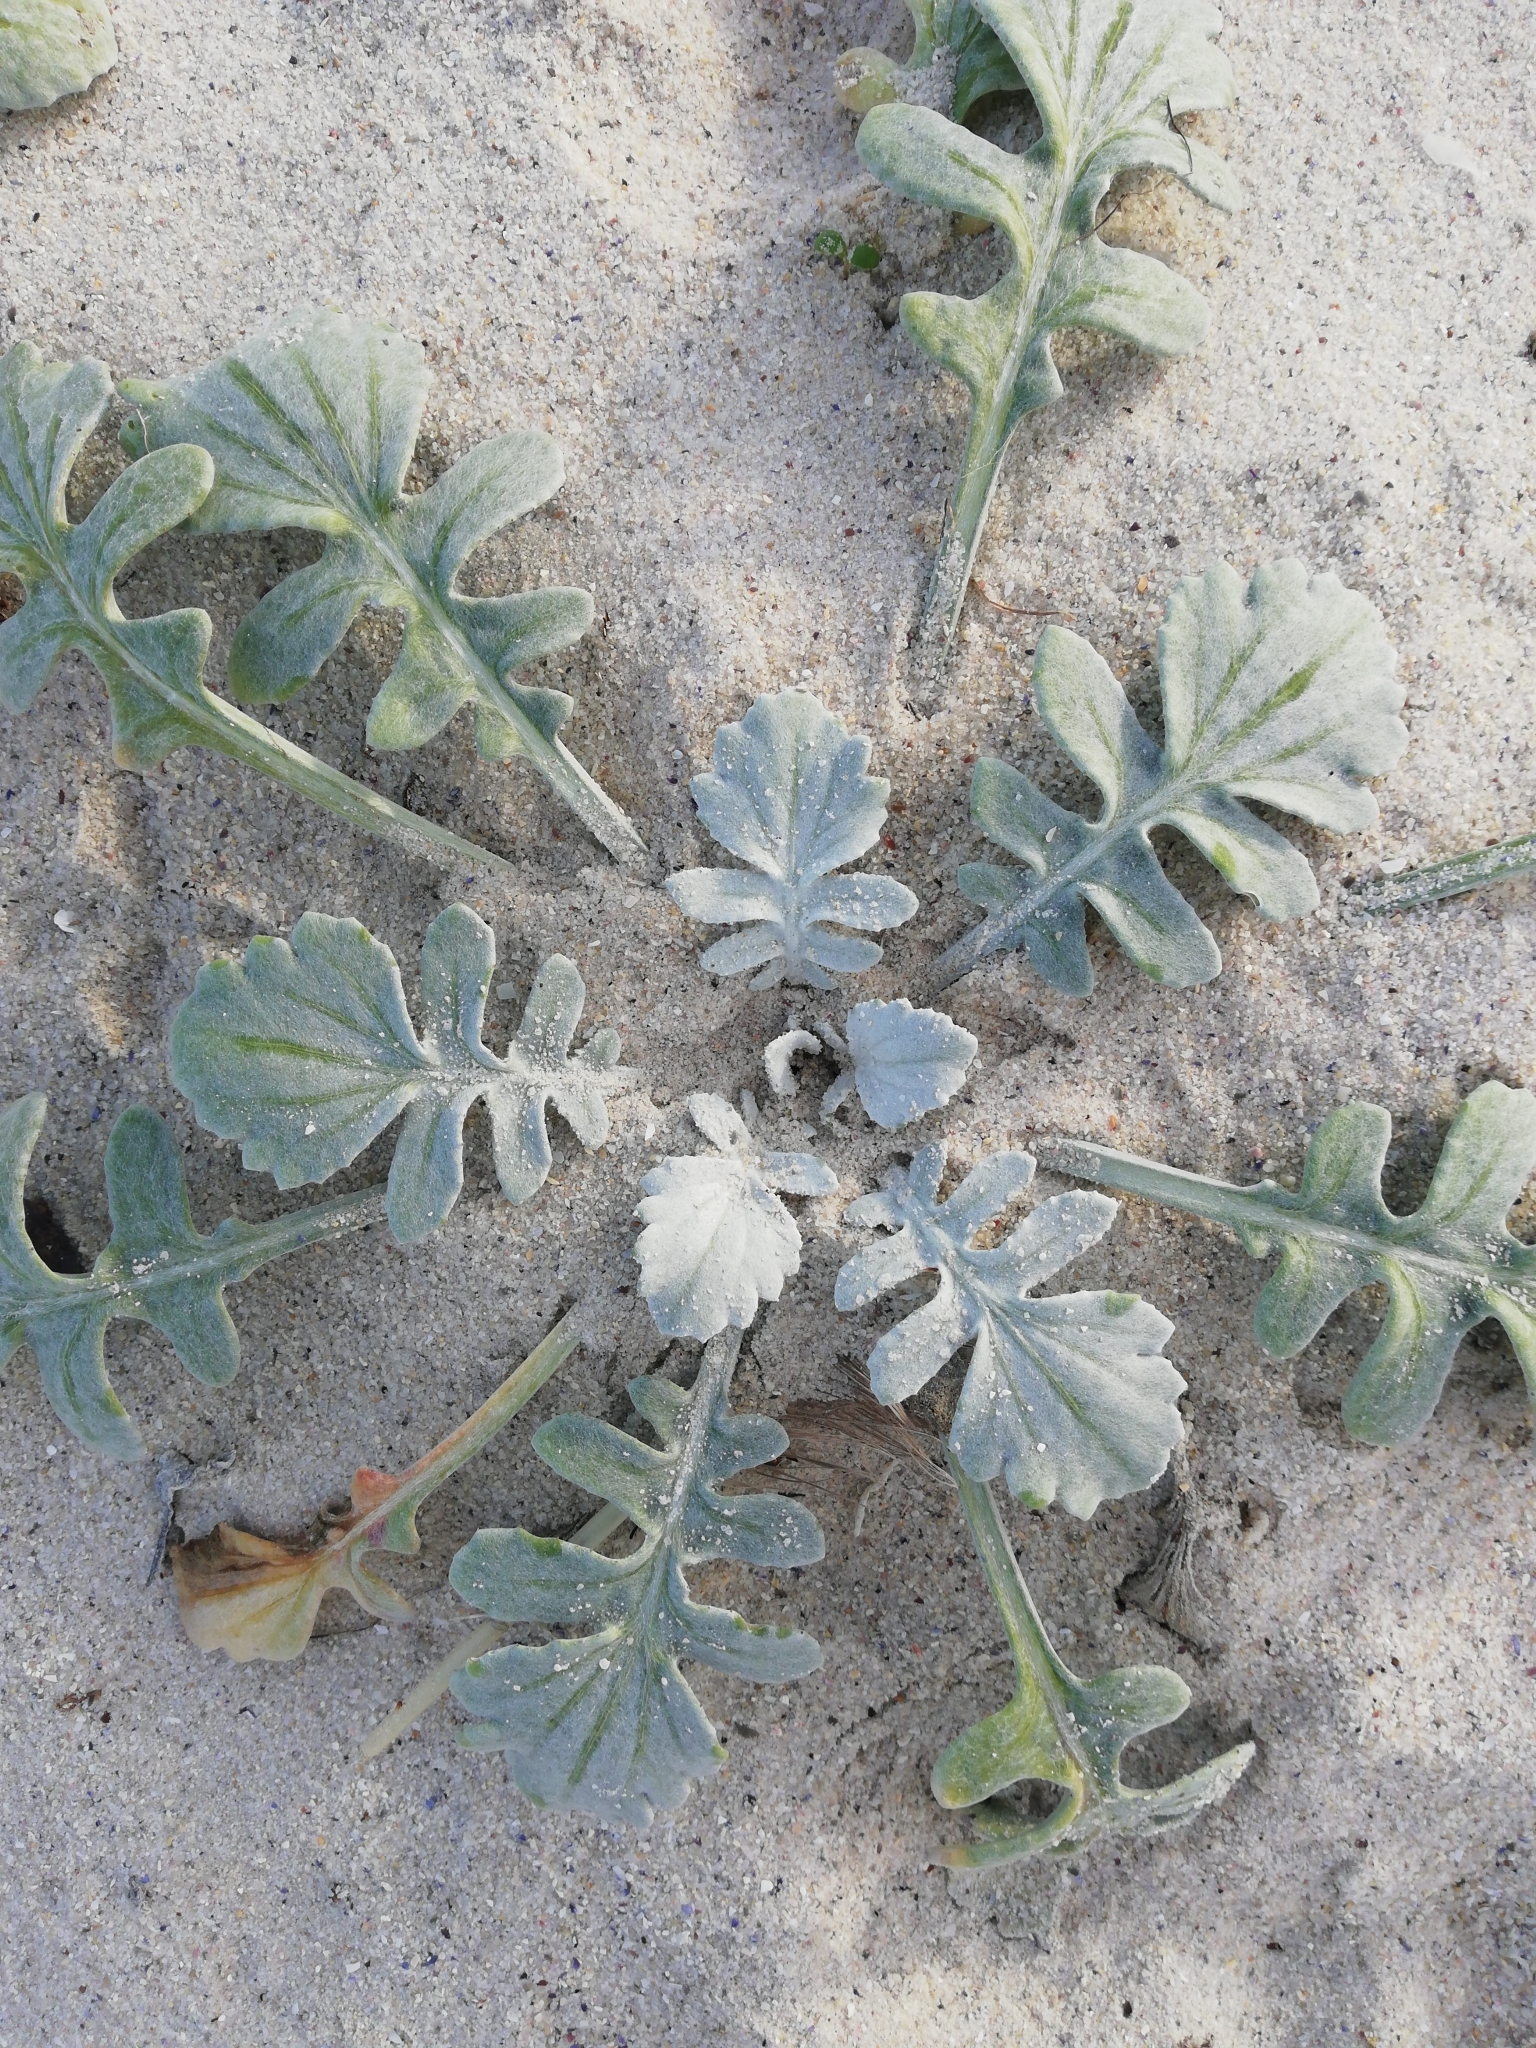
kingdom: Plantae
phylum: Tracheophyta
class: Magnoliopsida
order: Asterales
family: Asteraceae
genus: Arctotheca
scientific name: Arctotheca populifolia
